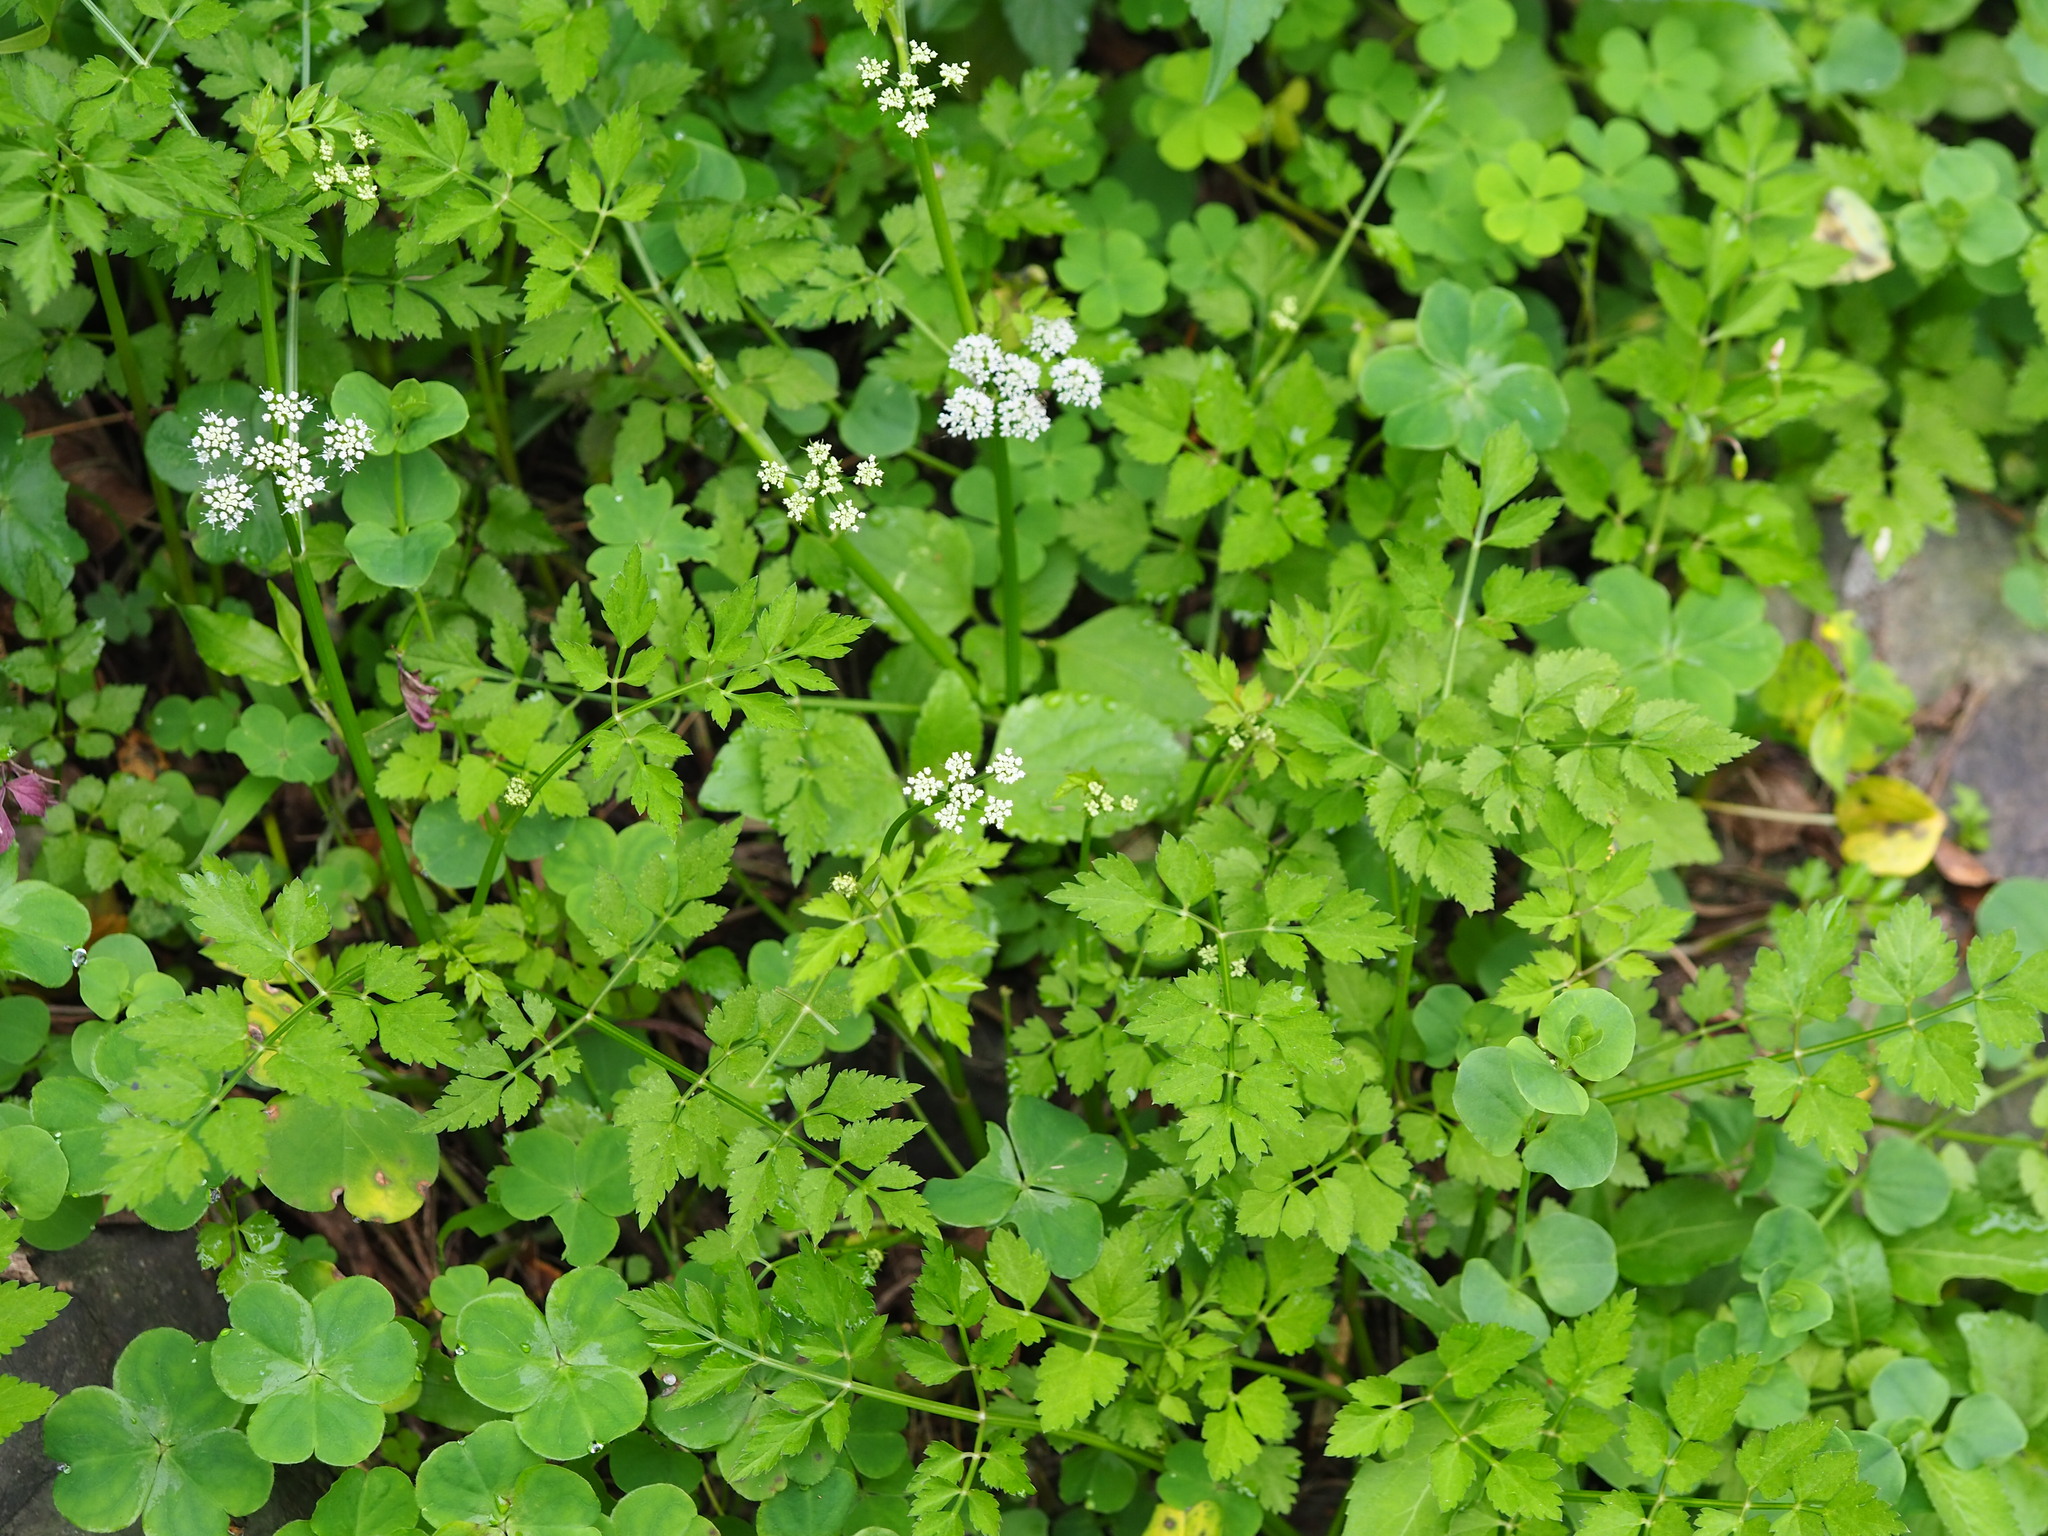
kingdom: Plantae
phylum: Tracheophyta
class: Magnoliopsida
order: Apiales
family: Apiaceae
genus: Oenanthe
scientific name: Oenanthe javanica
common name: Java water-dropwort
